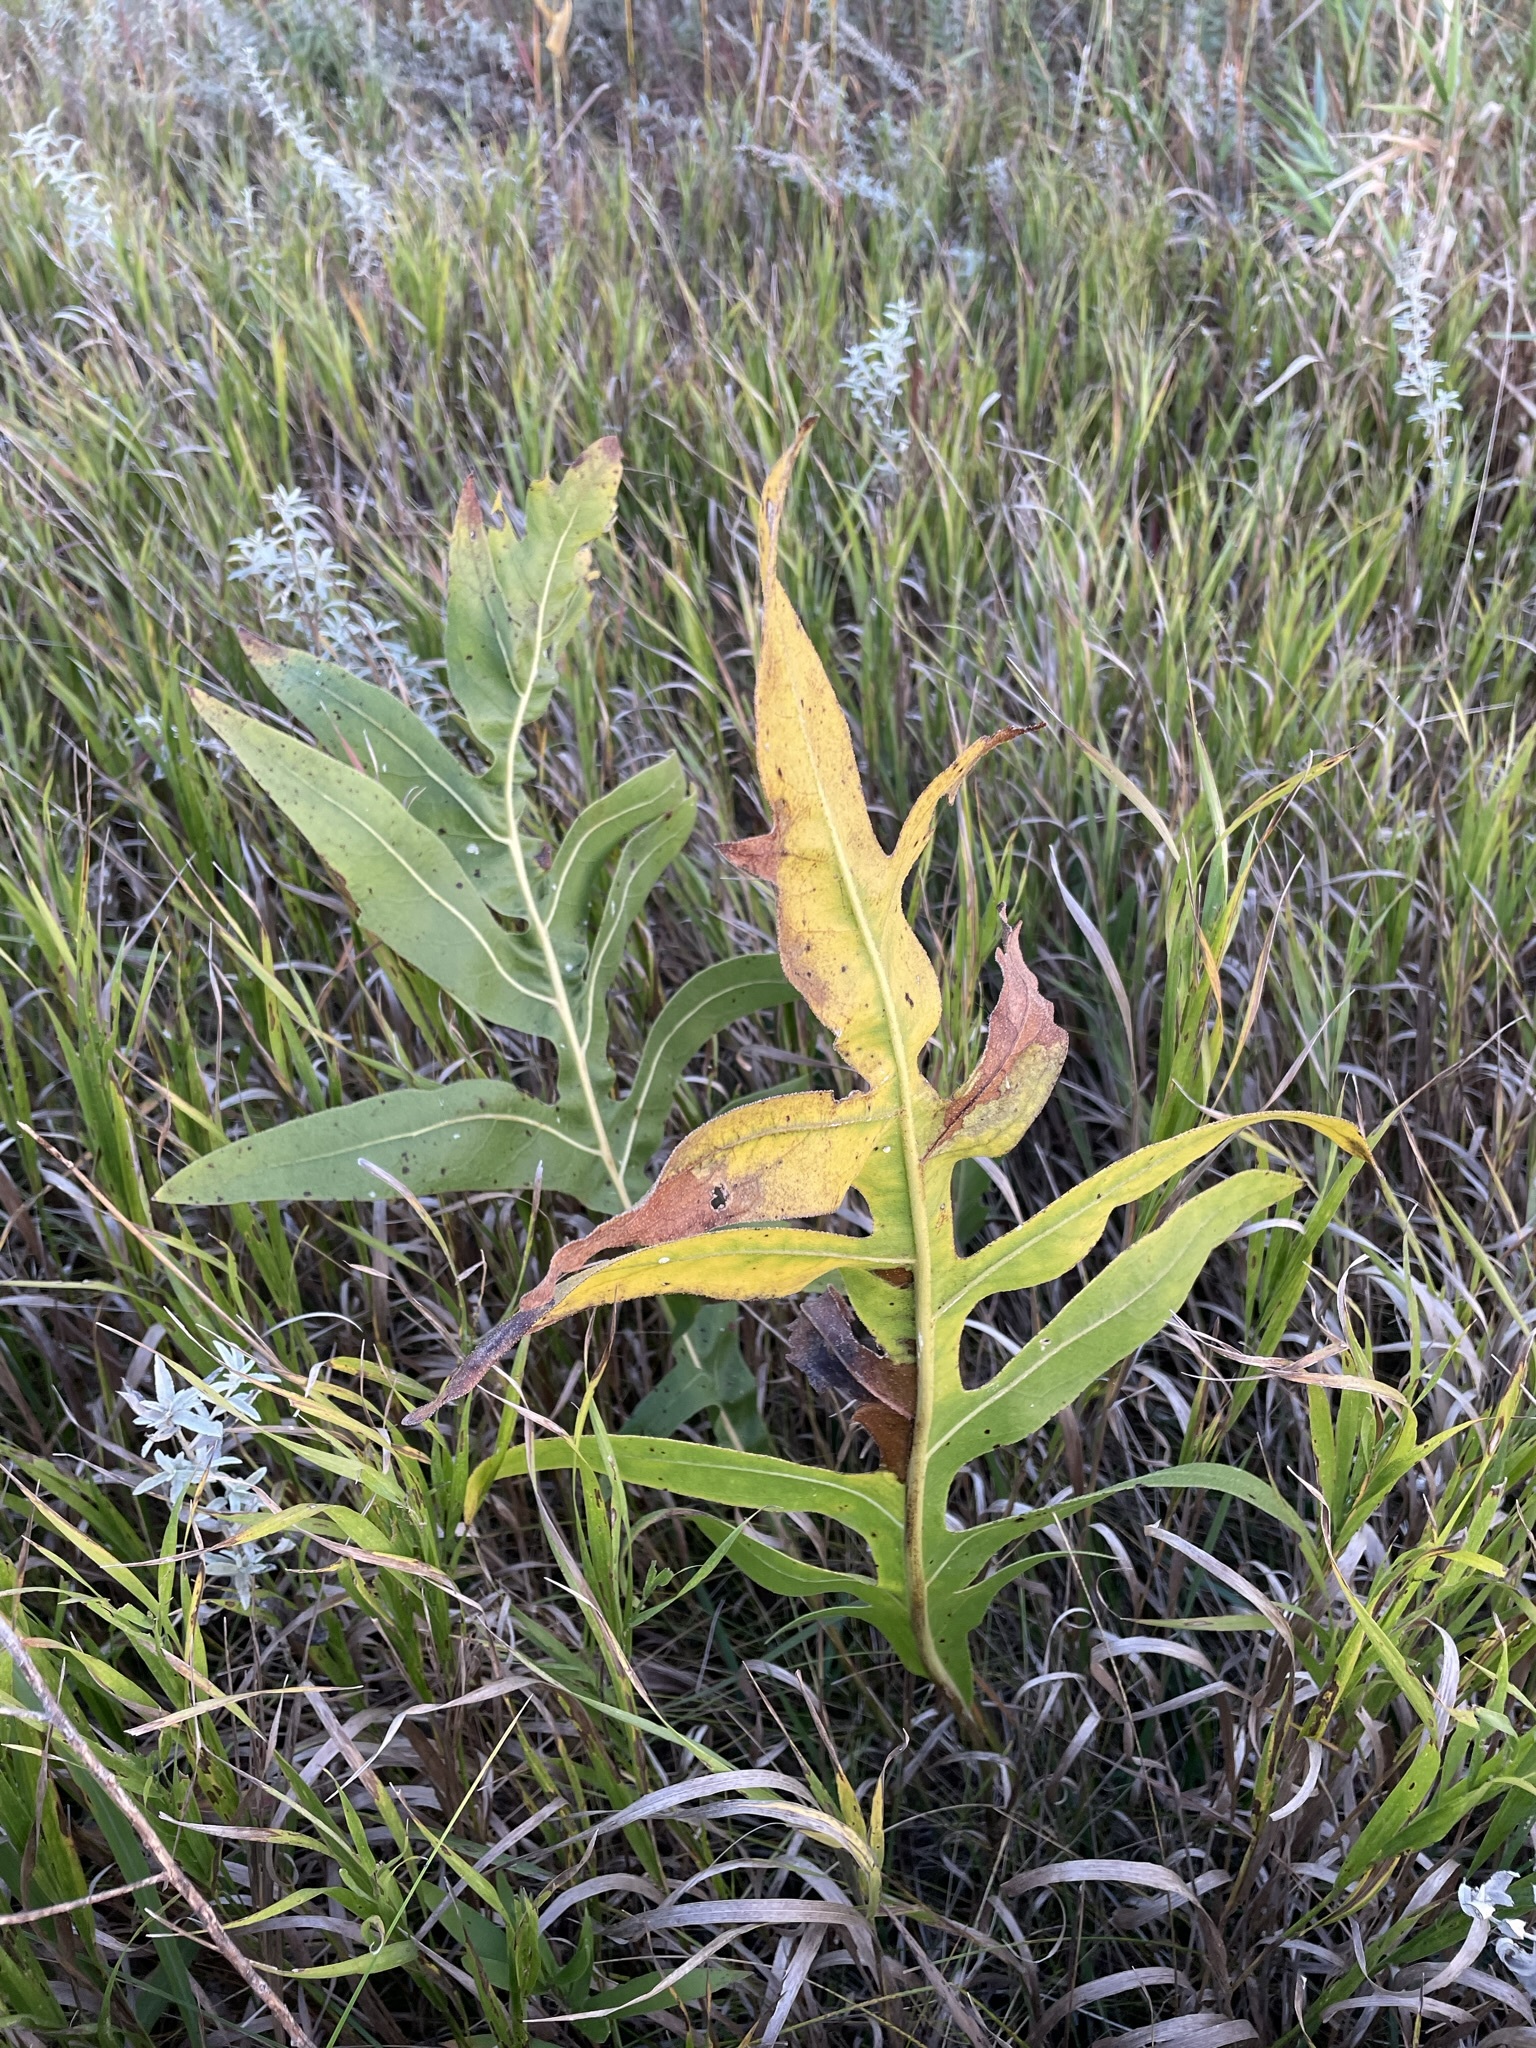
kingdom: Plantae
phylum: Tracheophyta
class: Magnoliopsida
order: Asterales
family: Asteraceae
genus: Silphium
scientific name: Silphium laciniatum
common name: Polarplant
